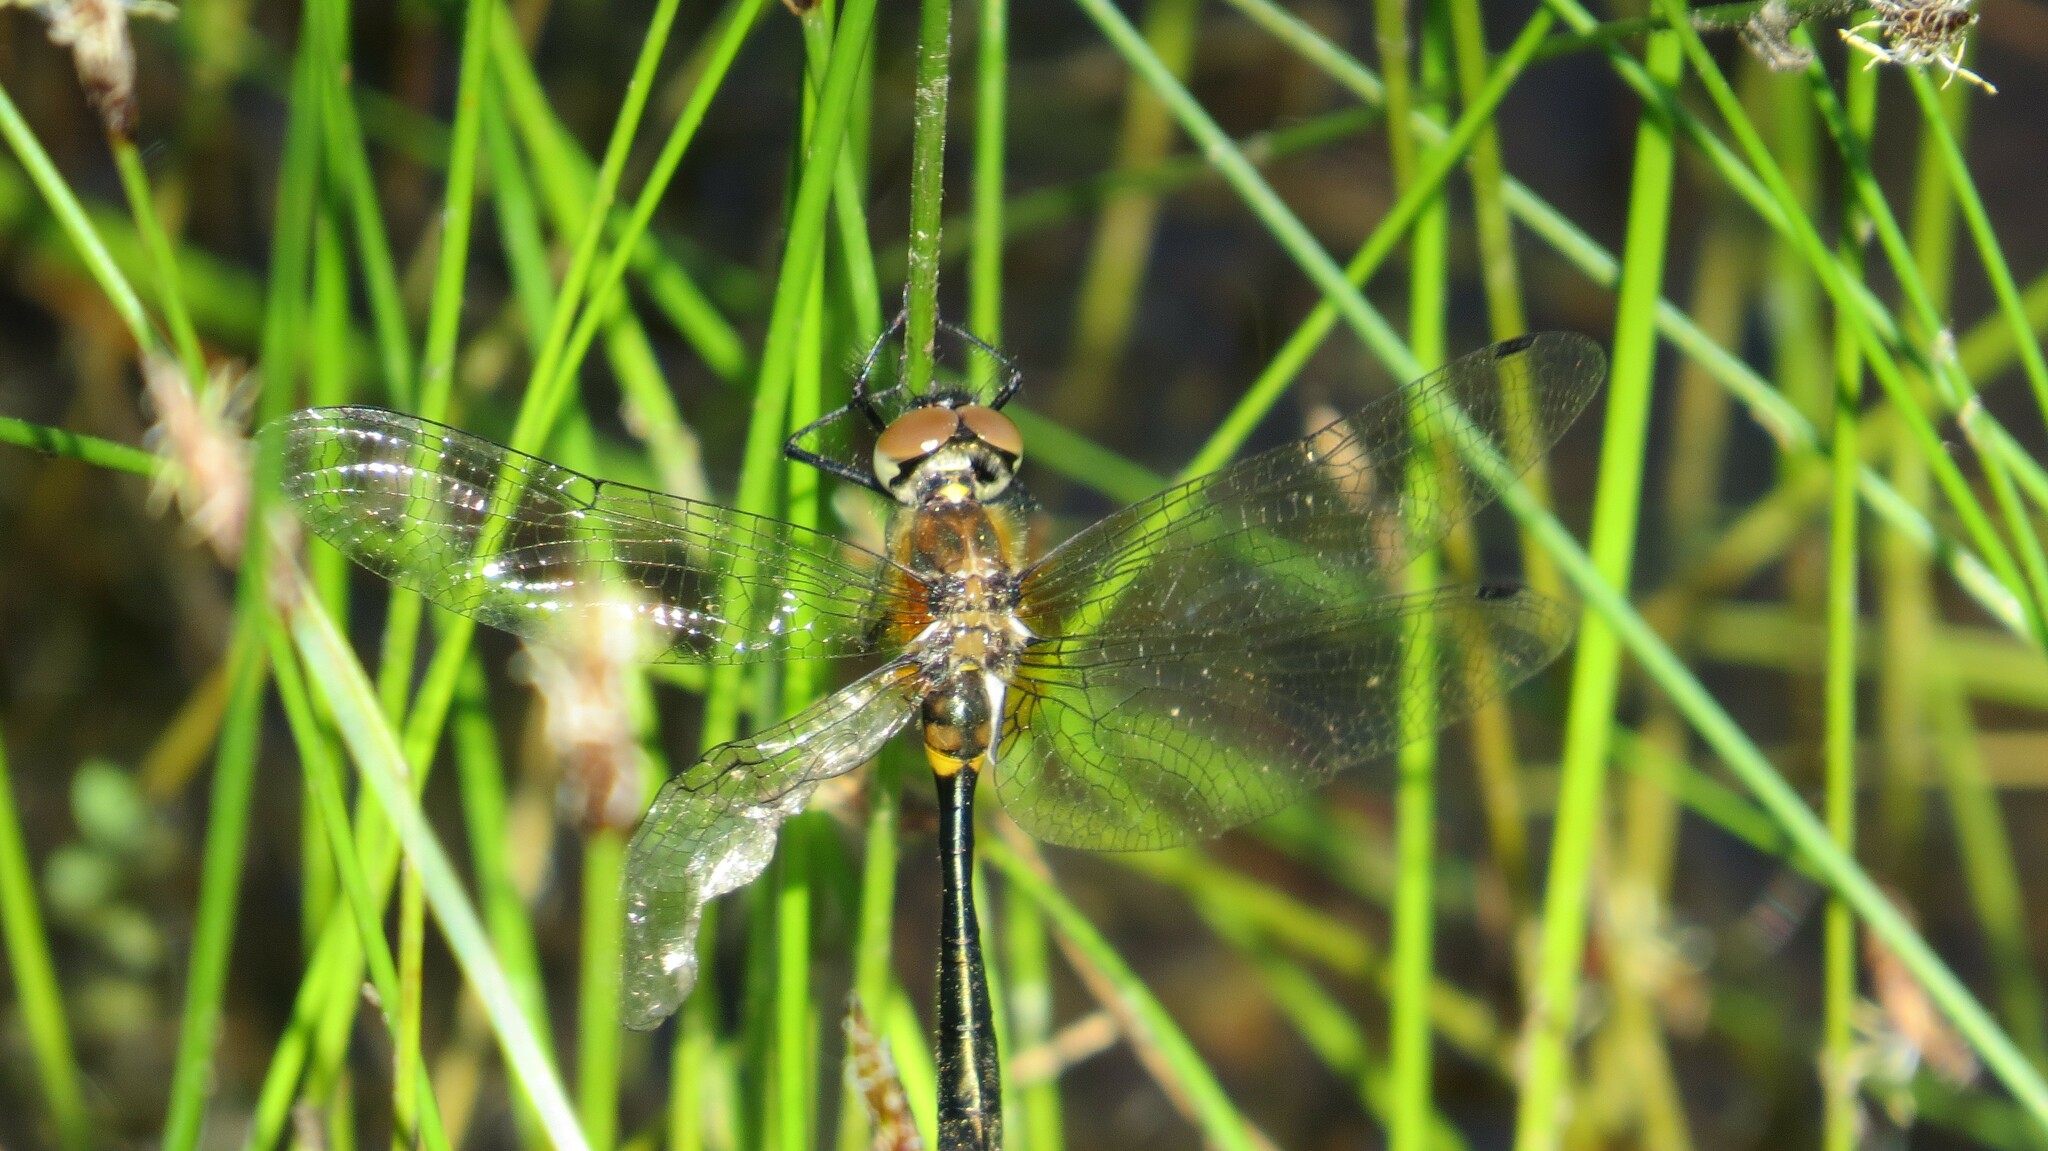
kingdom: Animalia
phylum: Arthropoda
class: Insecta
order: Odonata
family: Corduliidae
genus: Dorocordulia
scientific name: Dorocordulia libera
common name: Racket-tailed emerald
